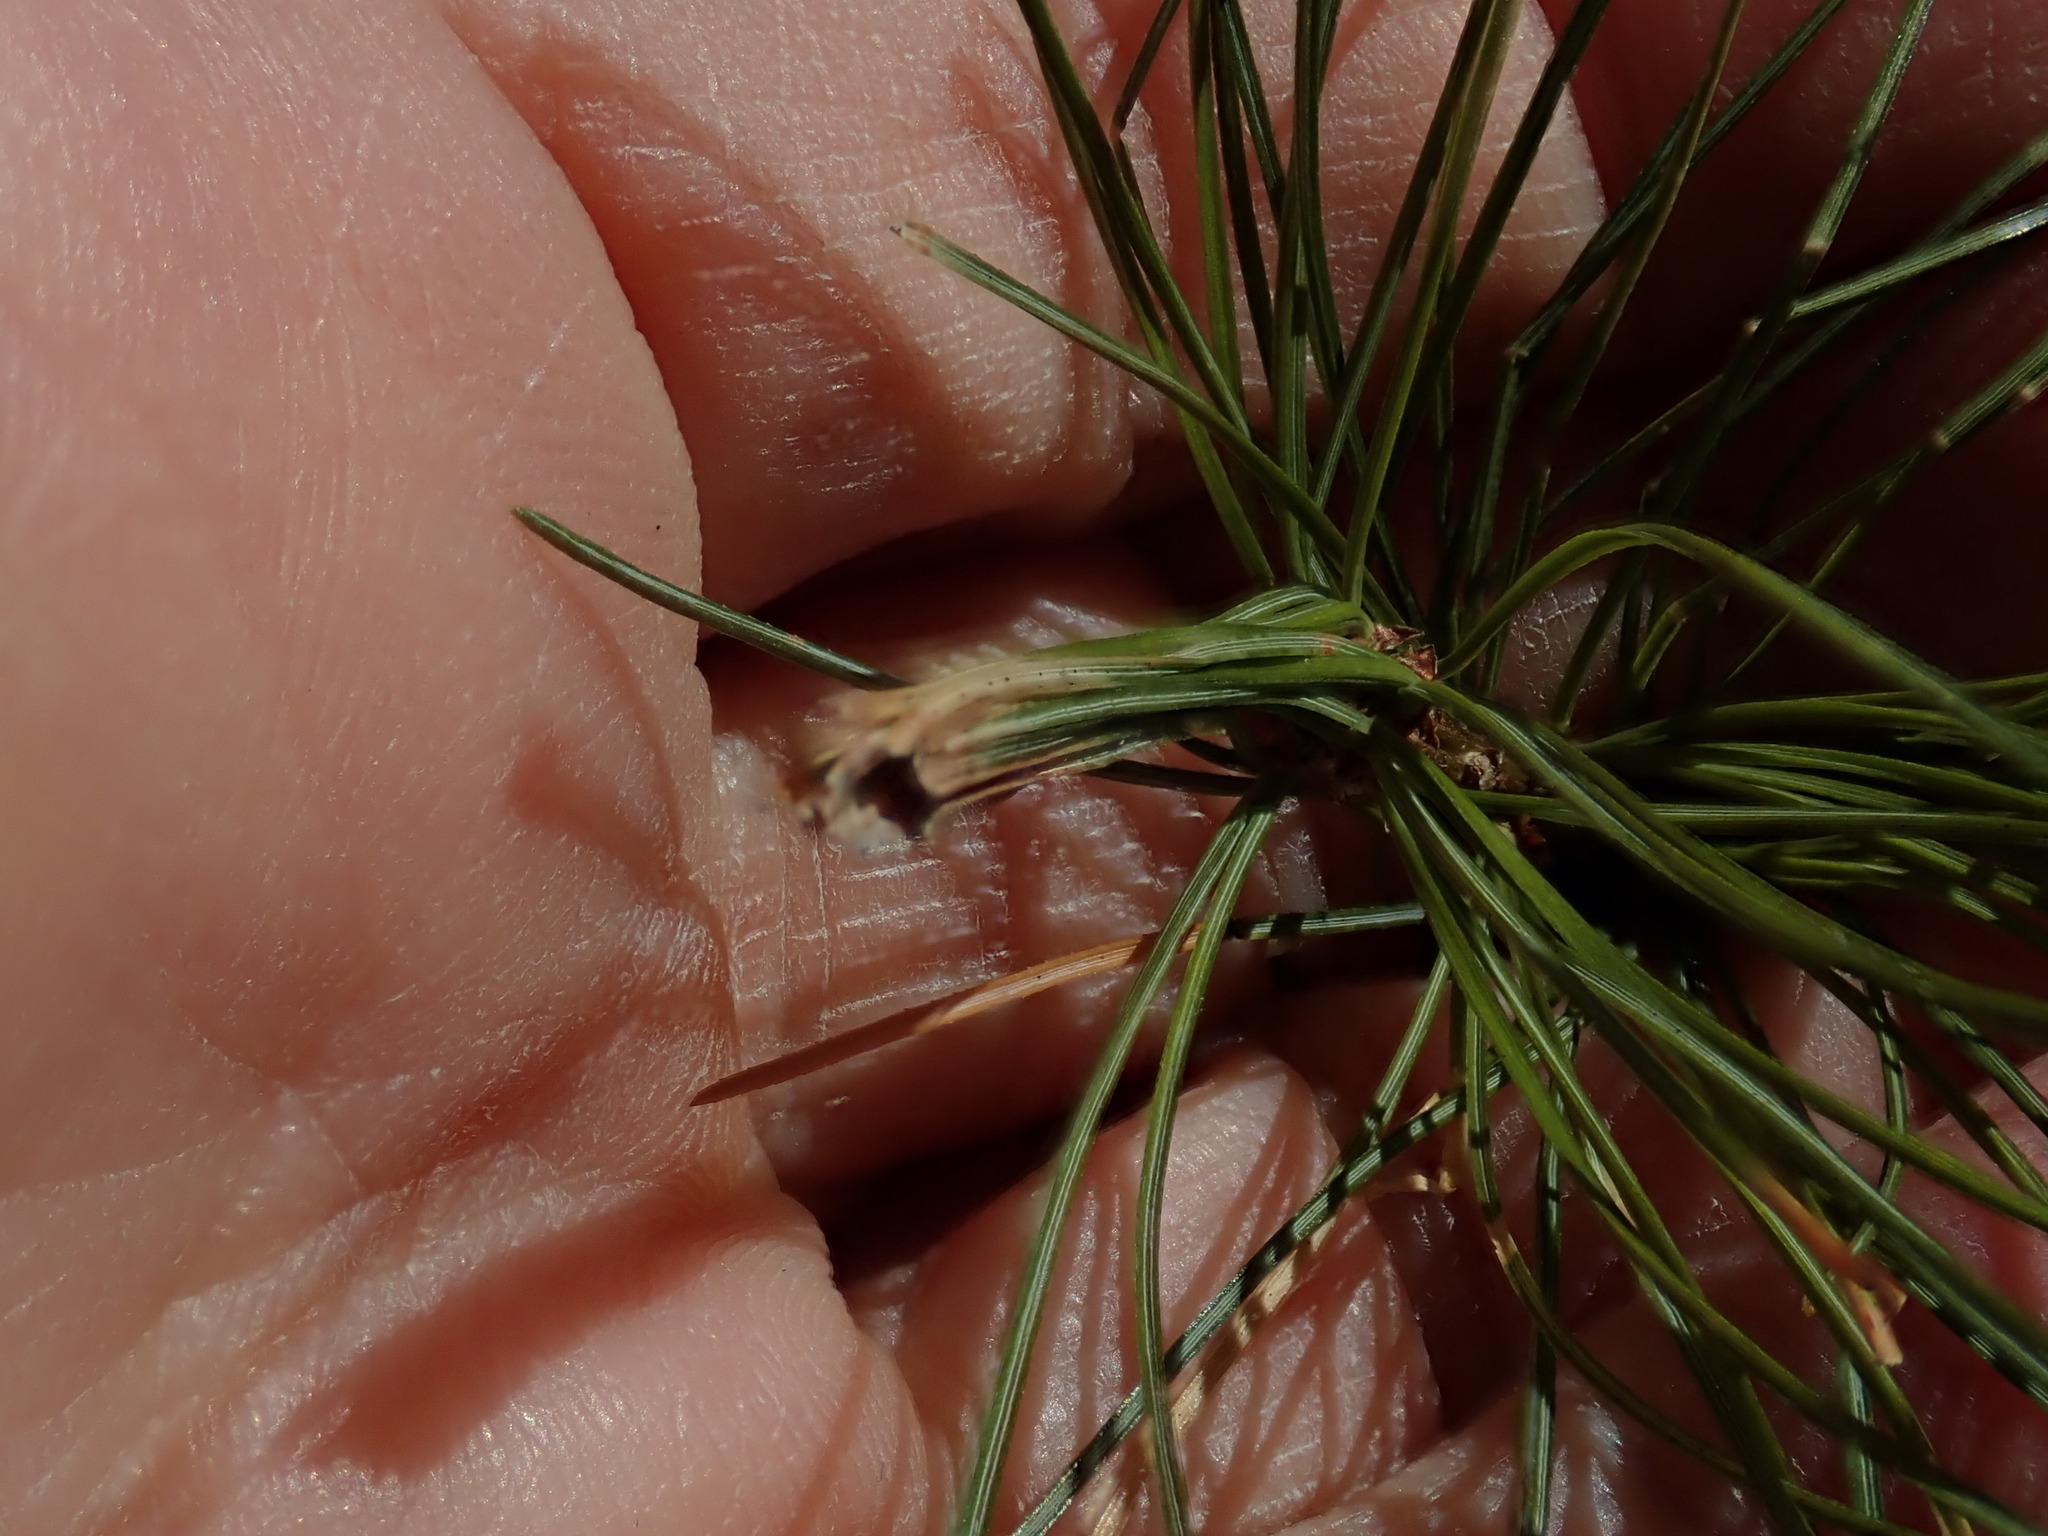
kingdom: Animalia
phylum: Arthropoda
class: Insecta
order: Lepidoptera
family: Tortricidae
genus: Argyrotaenia
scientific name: Argyrotaenia pinatubana
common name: Pine tube moth
